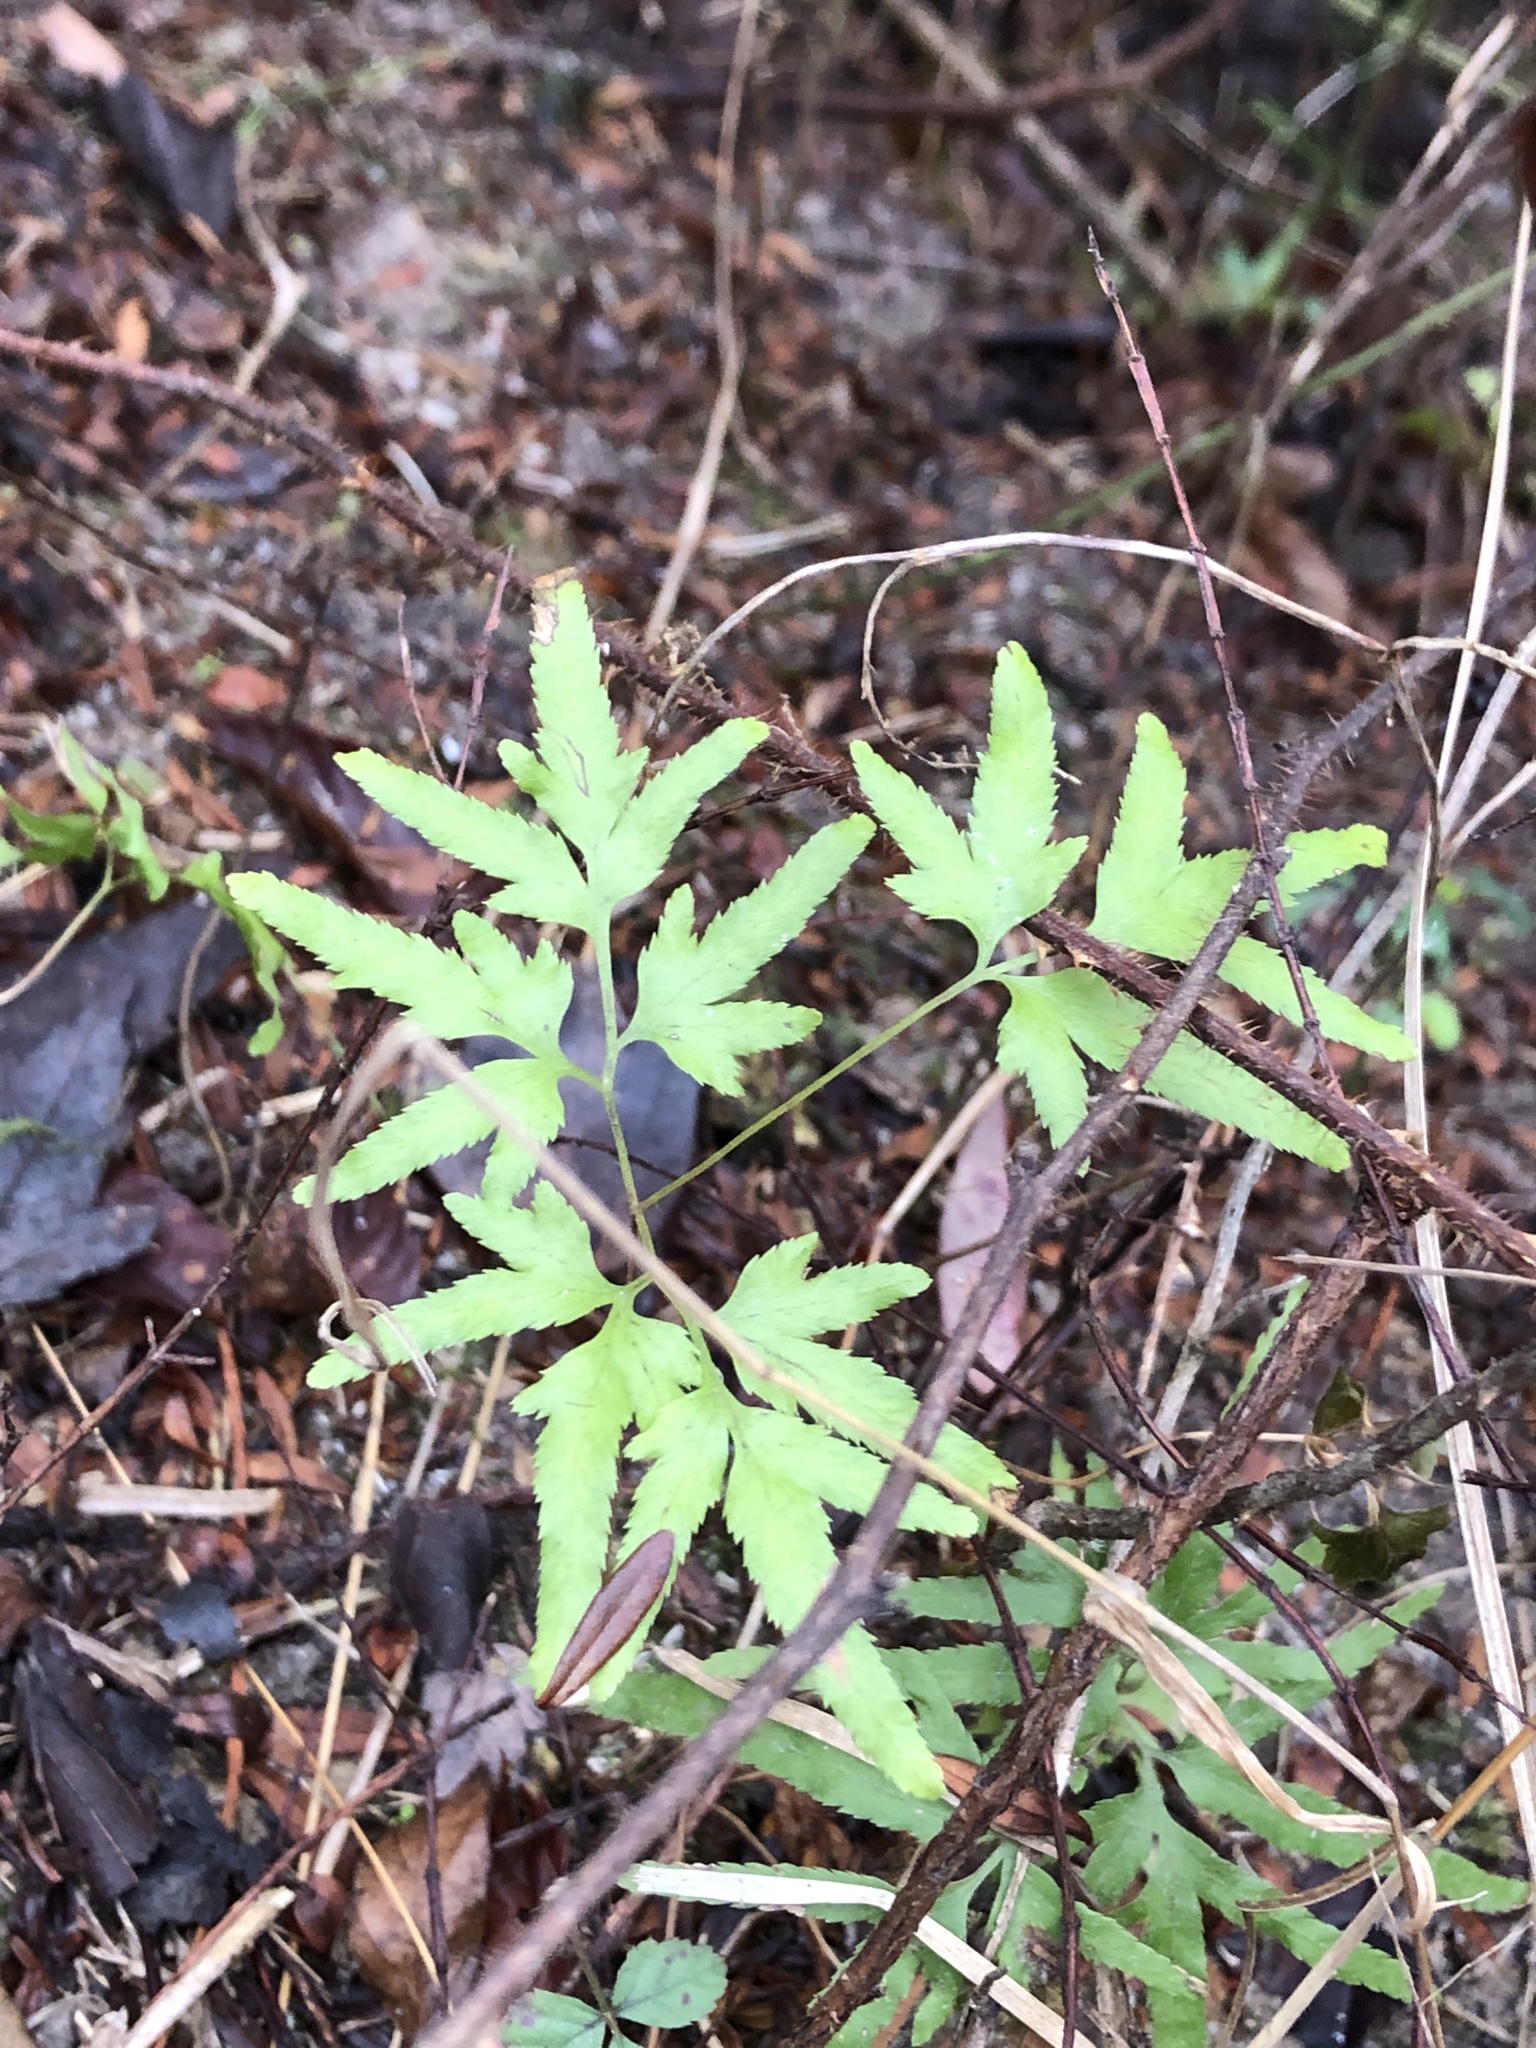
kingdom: Plantae
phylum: Tracheophyta
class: Polypodiopsida
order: Schizaeales
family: Lygodiaceae
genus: Lygodium
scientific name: Lygodium japonicum
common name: Japanese climbing fern
